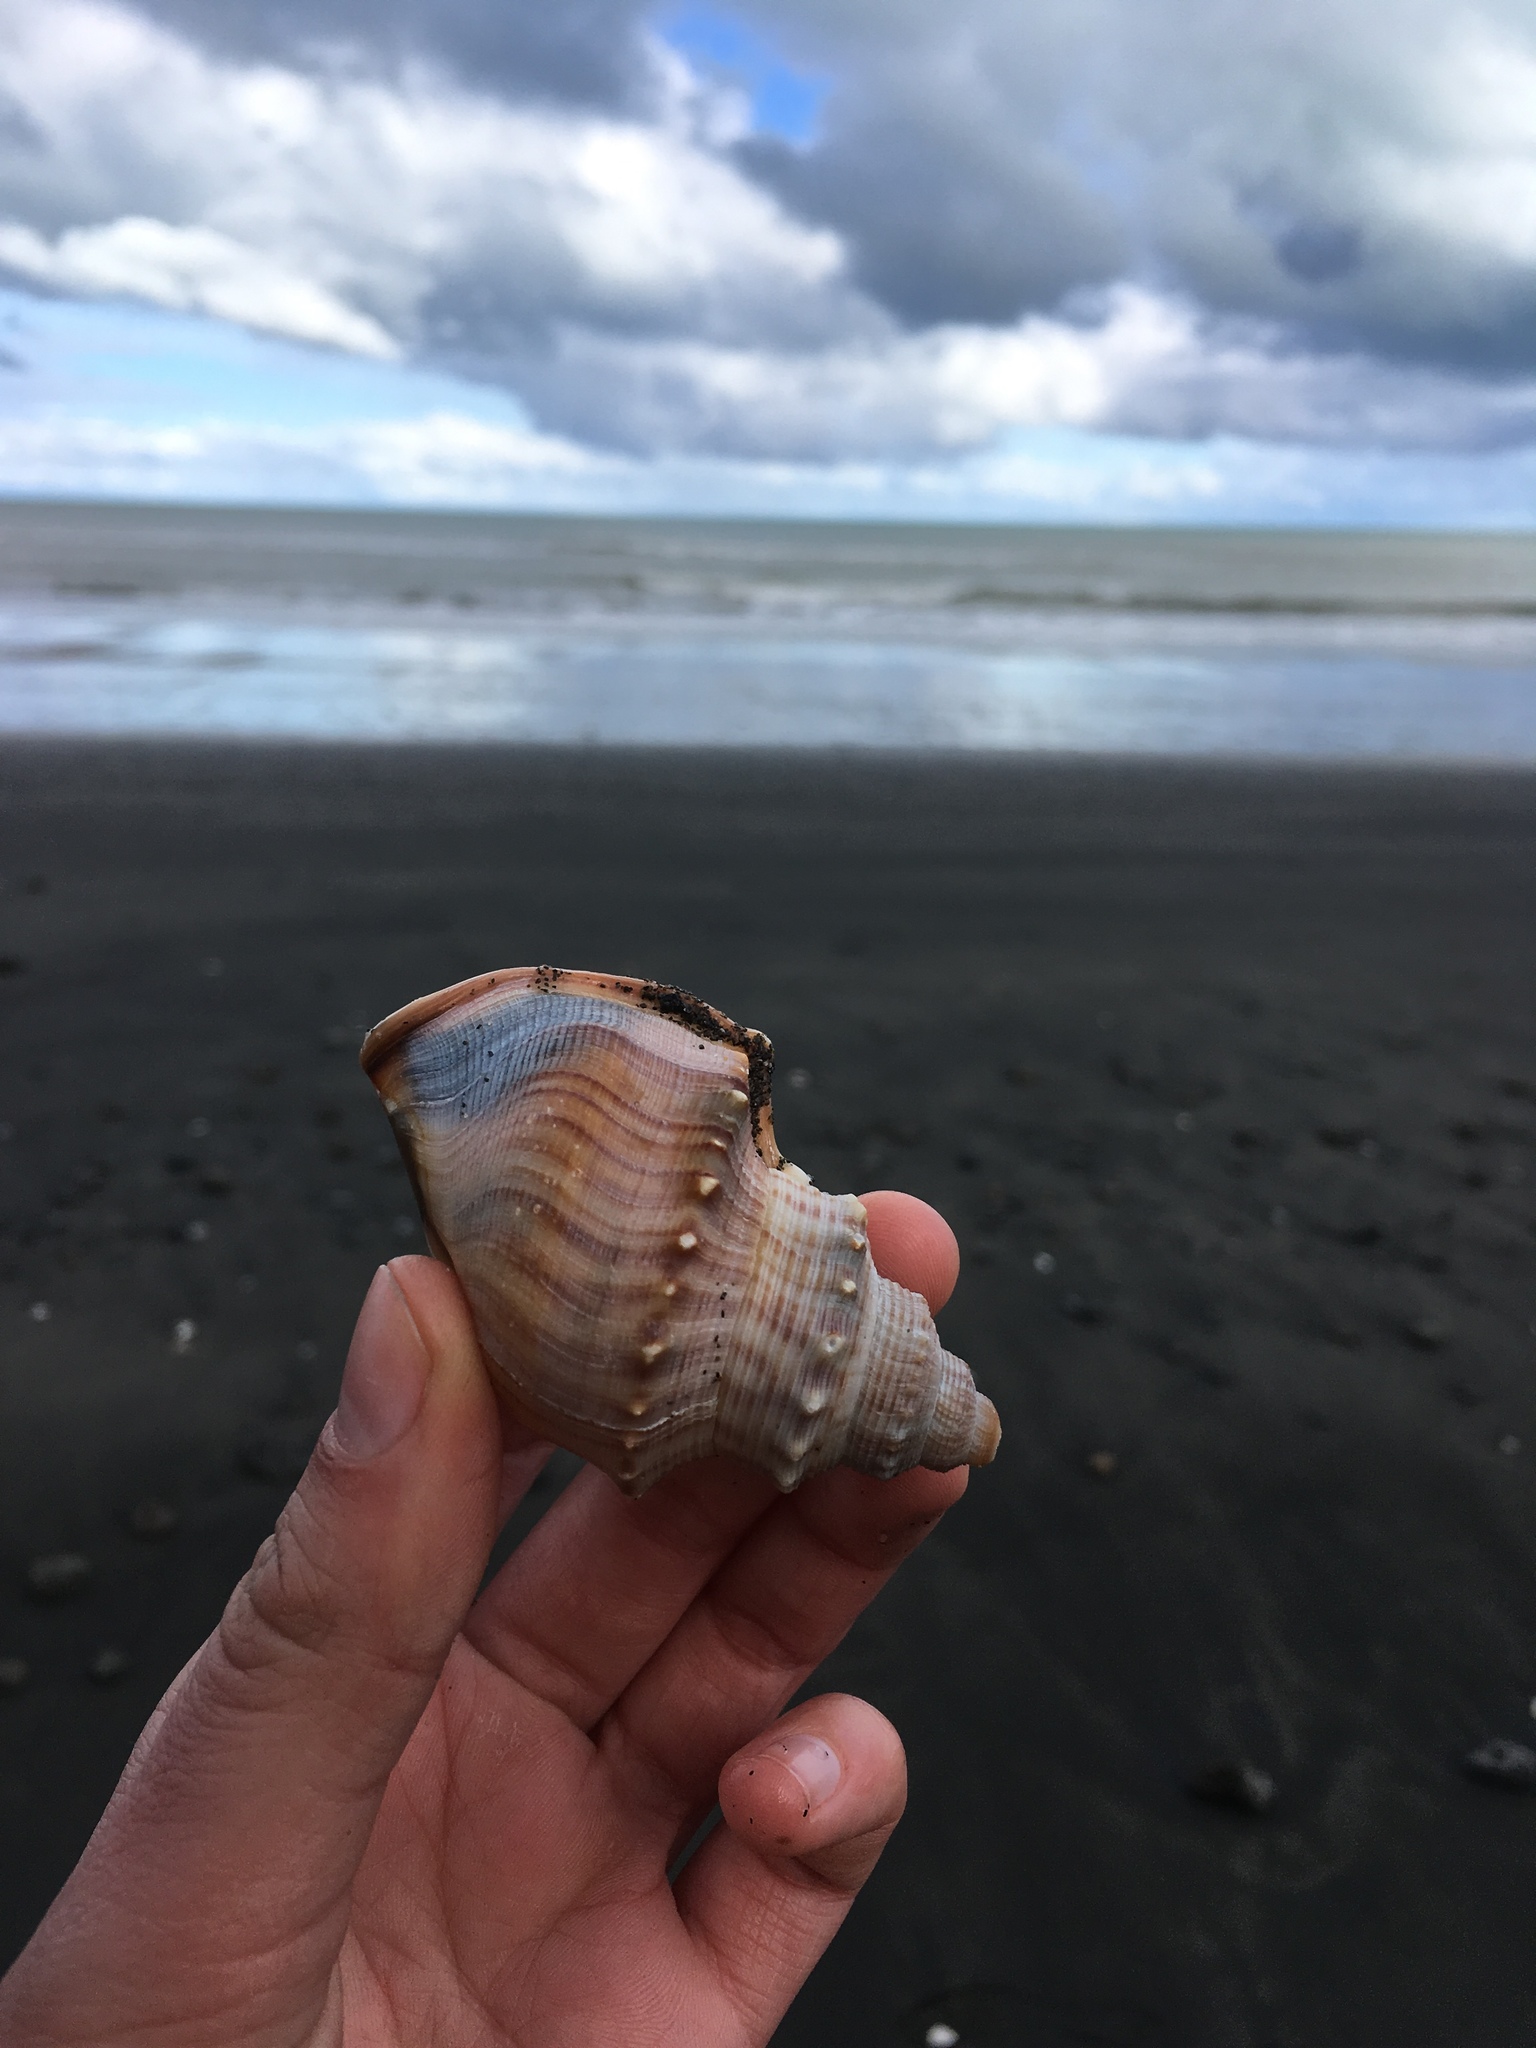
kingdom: Animalia
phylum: Mollusca
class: Gastropoda
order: Littorinimorpha
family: Struthiolariidae
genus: Struthiolaria
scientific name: Struthiolaria papulosa
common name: Large ostrich foot
